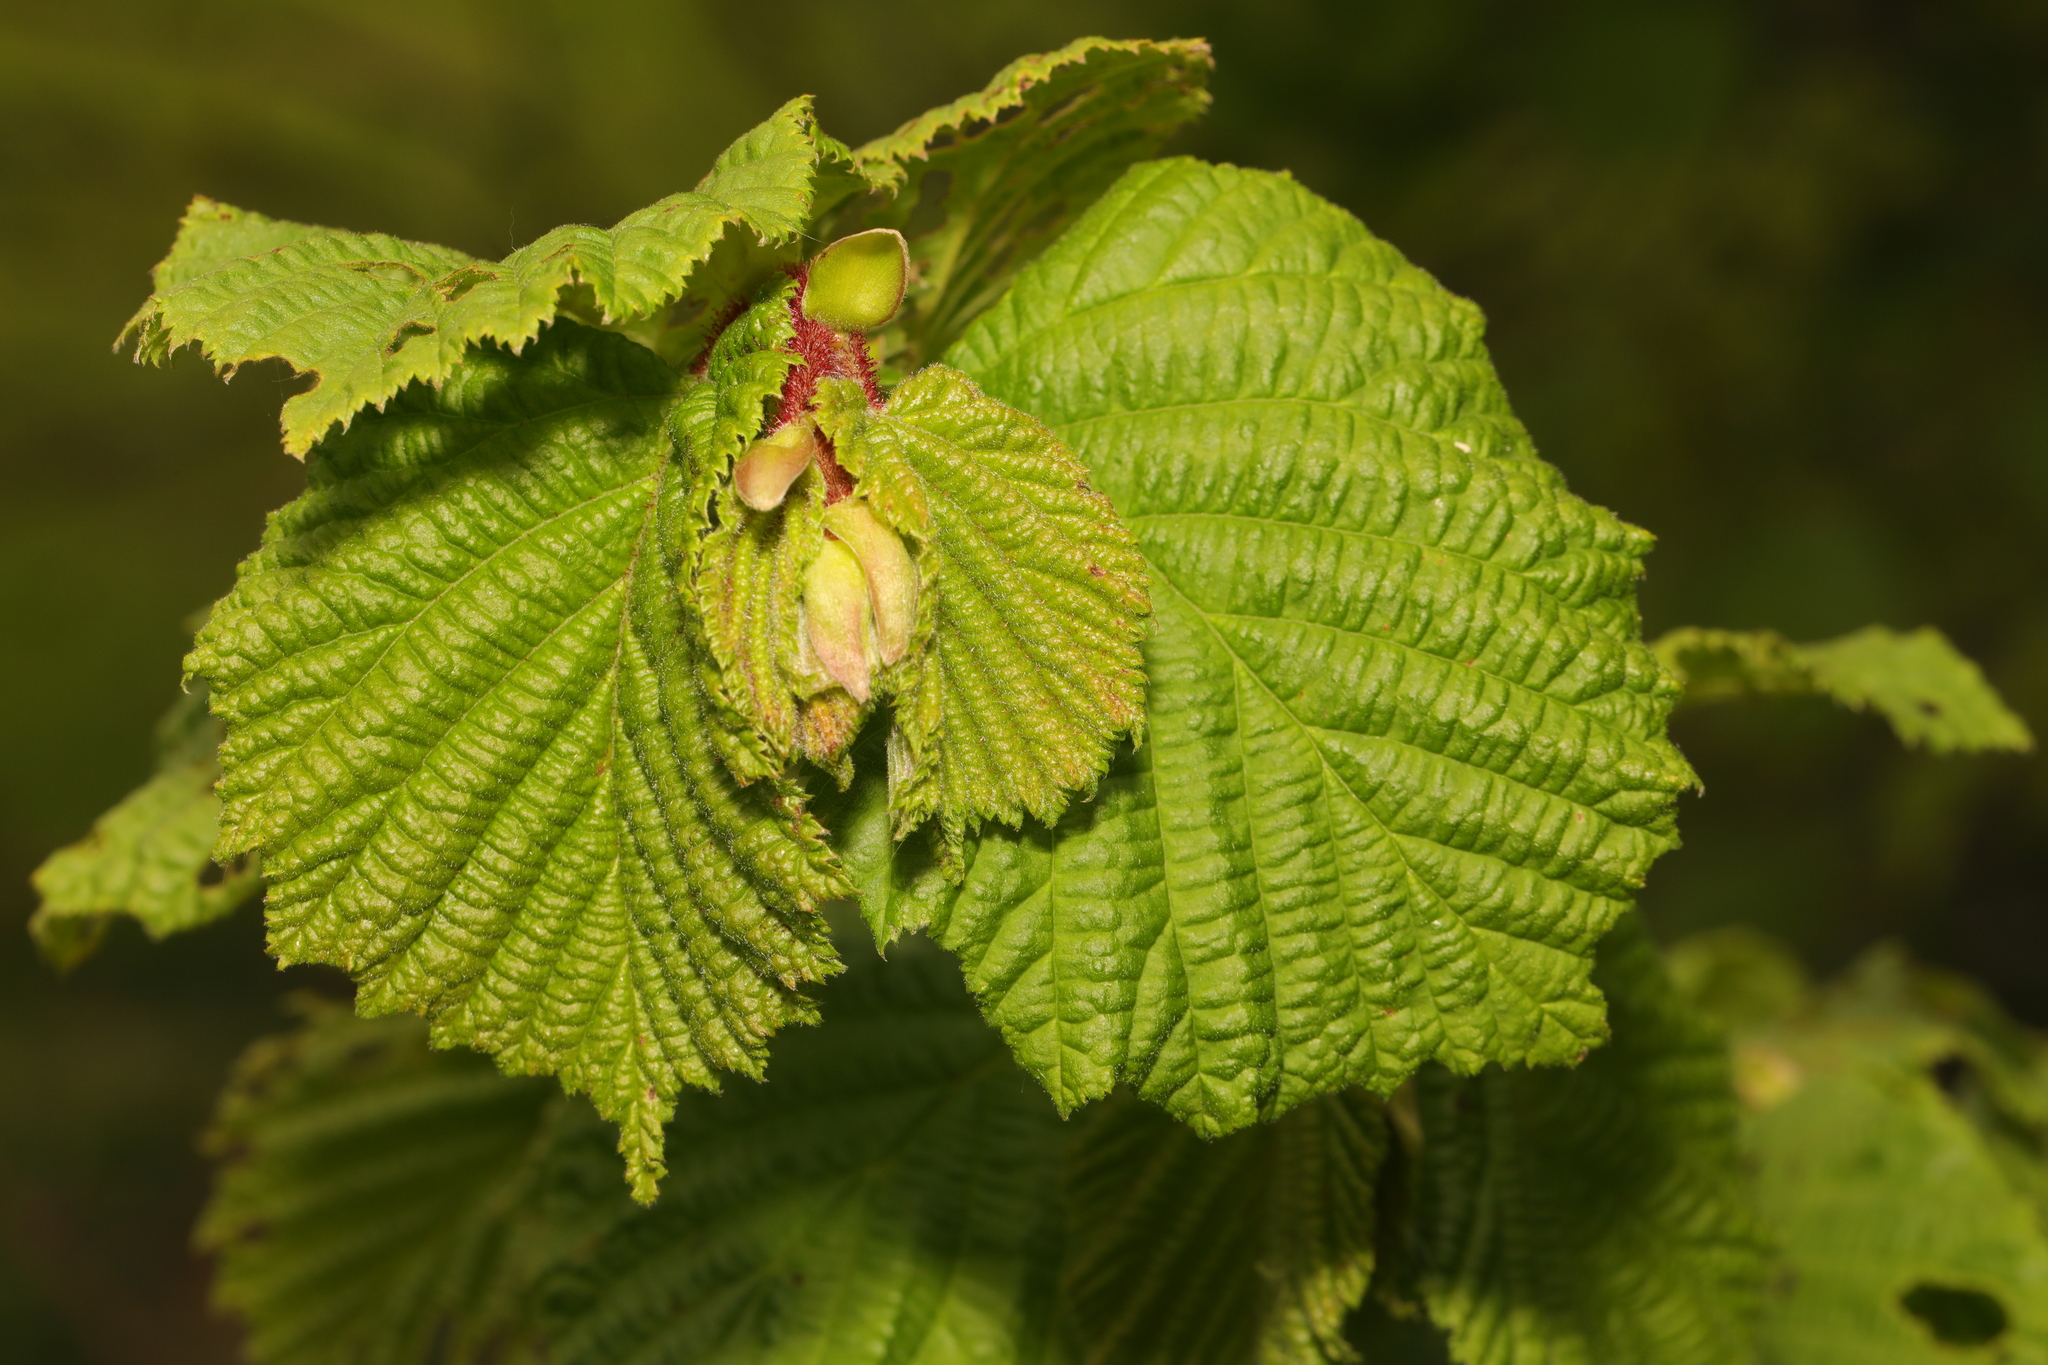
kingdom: Plantae
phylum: Tracheophyta
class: Magnoliopsida
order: Fagales
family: Betulaceae
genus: Corylus
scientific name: Corylus avellana
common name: European hazel
